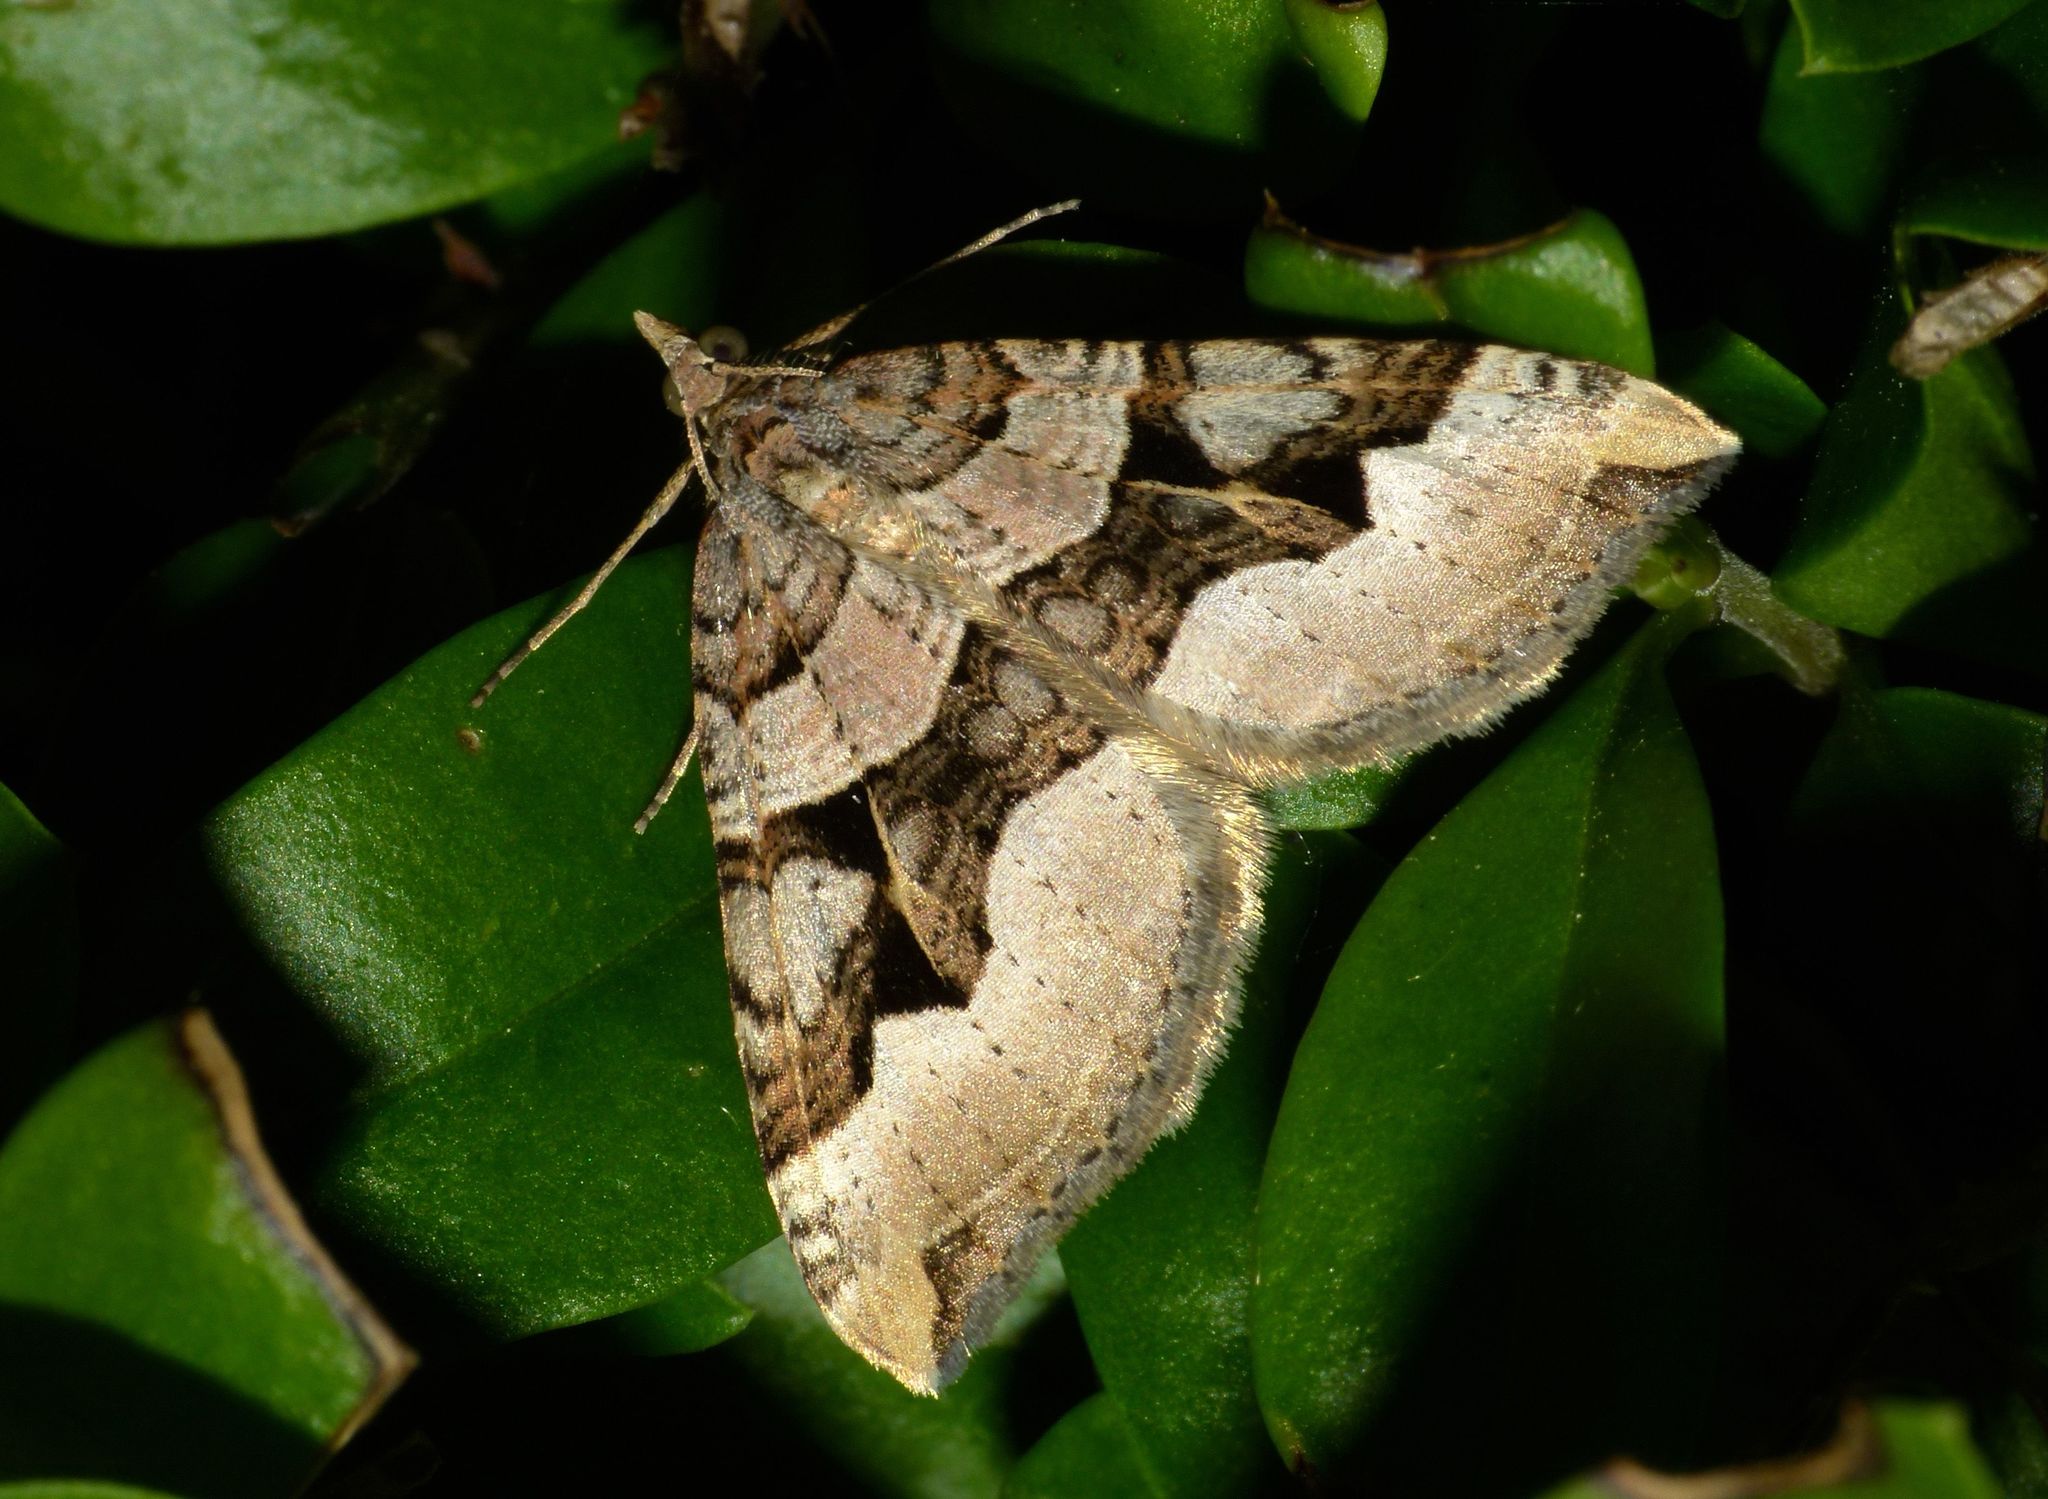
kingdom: Animalia
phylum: Arthropoda
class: Insecta
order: Lepidoptera
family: Geometridae
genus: Xanthorhoe
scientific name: Xanthorhoe semifissata
